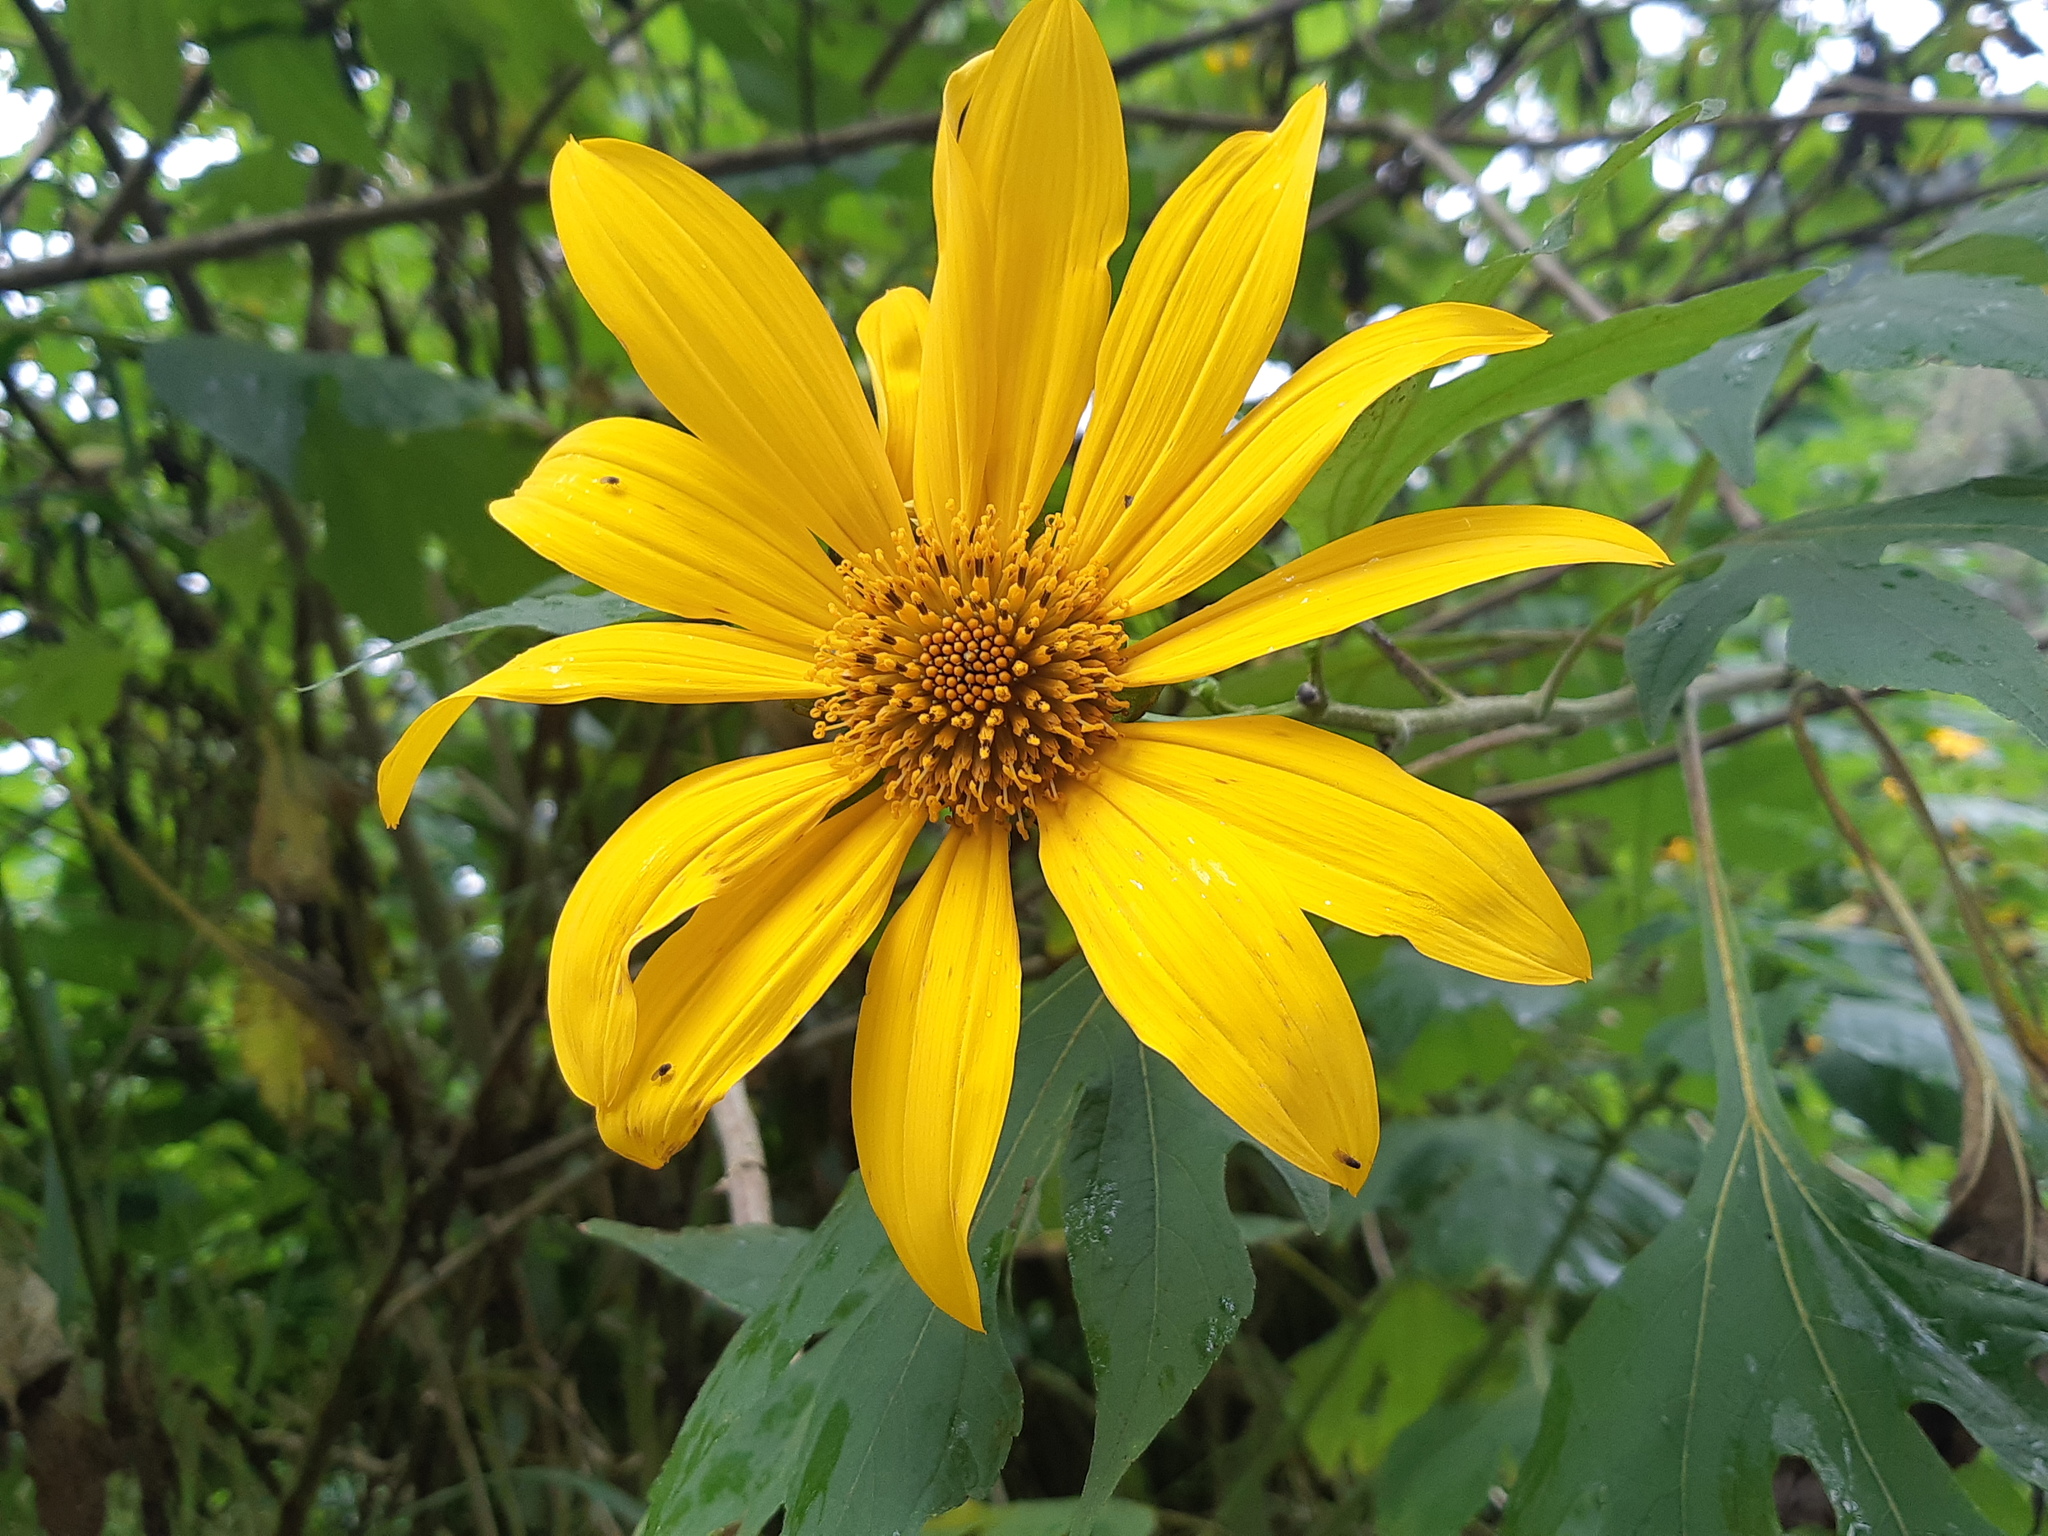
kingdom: Plantae
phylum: Tracheophyta
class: Magnoliopsida
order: Asterales
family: Asteraceae
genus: Tithonia
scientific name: Tithonia diversifolia
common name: Tree marigold
